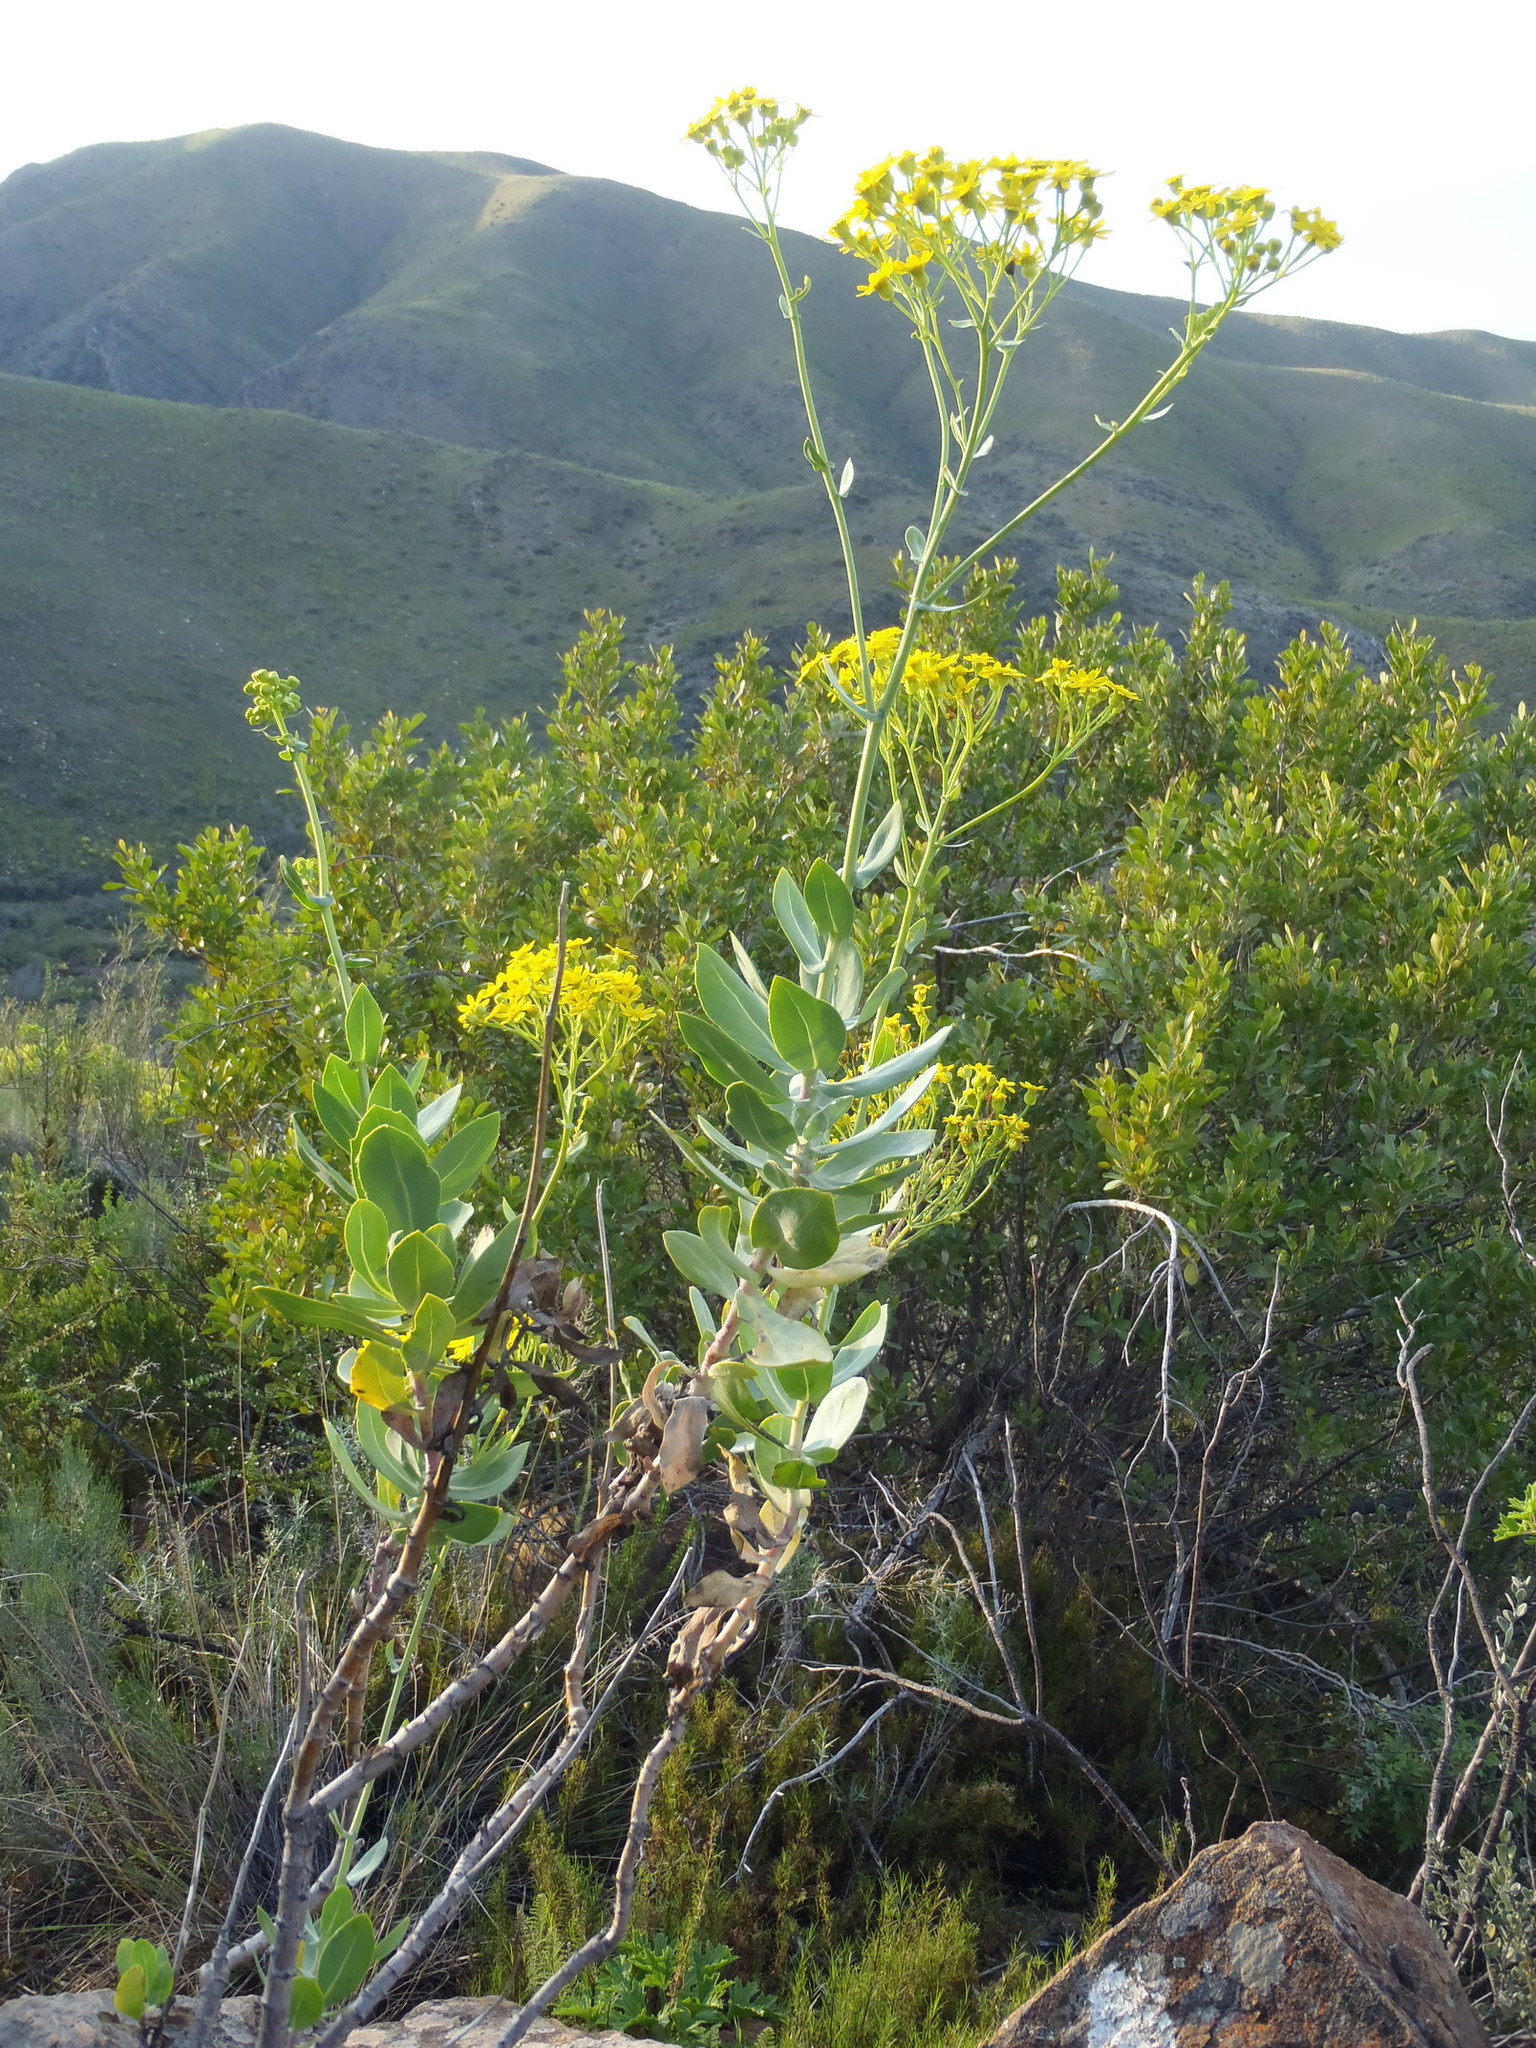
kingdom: Plantae
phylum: Tracheophyta
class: Magnoliopsida
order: Asterales
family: Asteraceae
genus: Othonna
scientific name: Othonna parviflora
